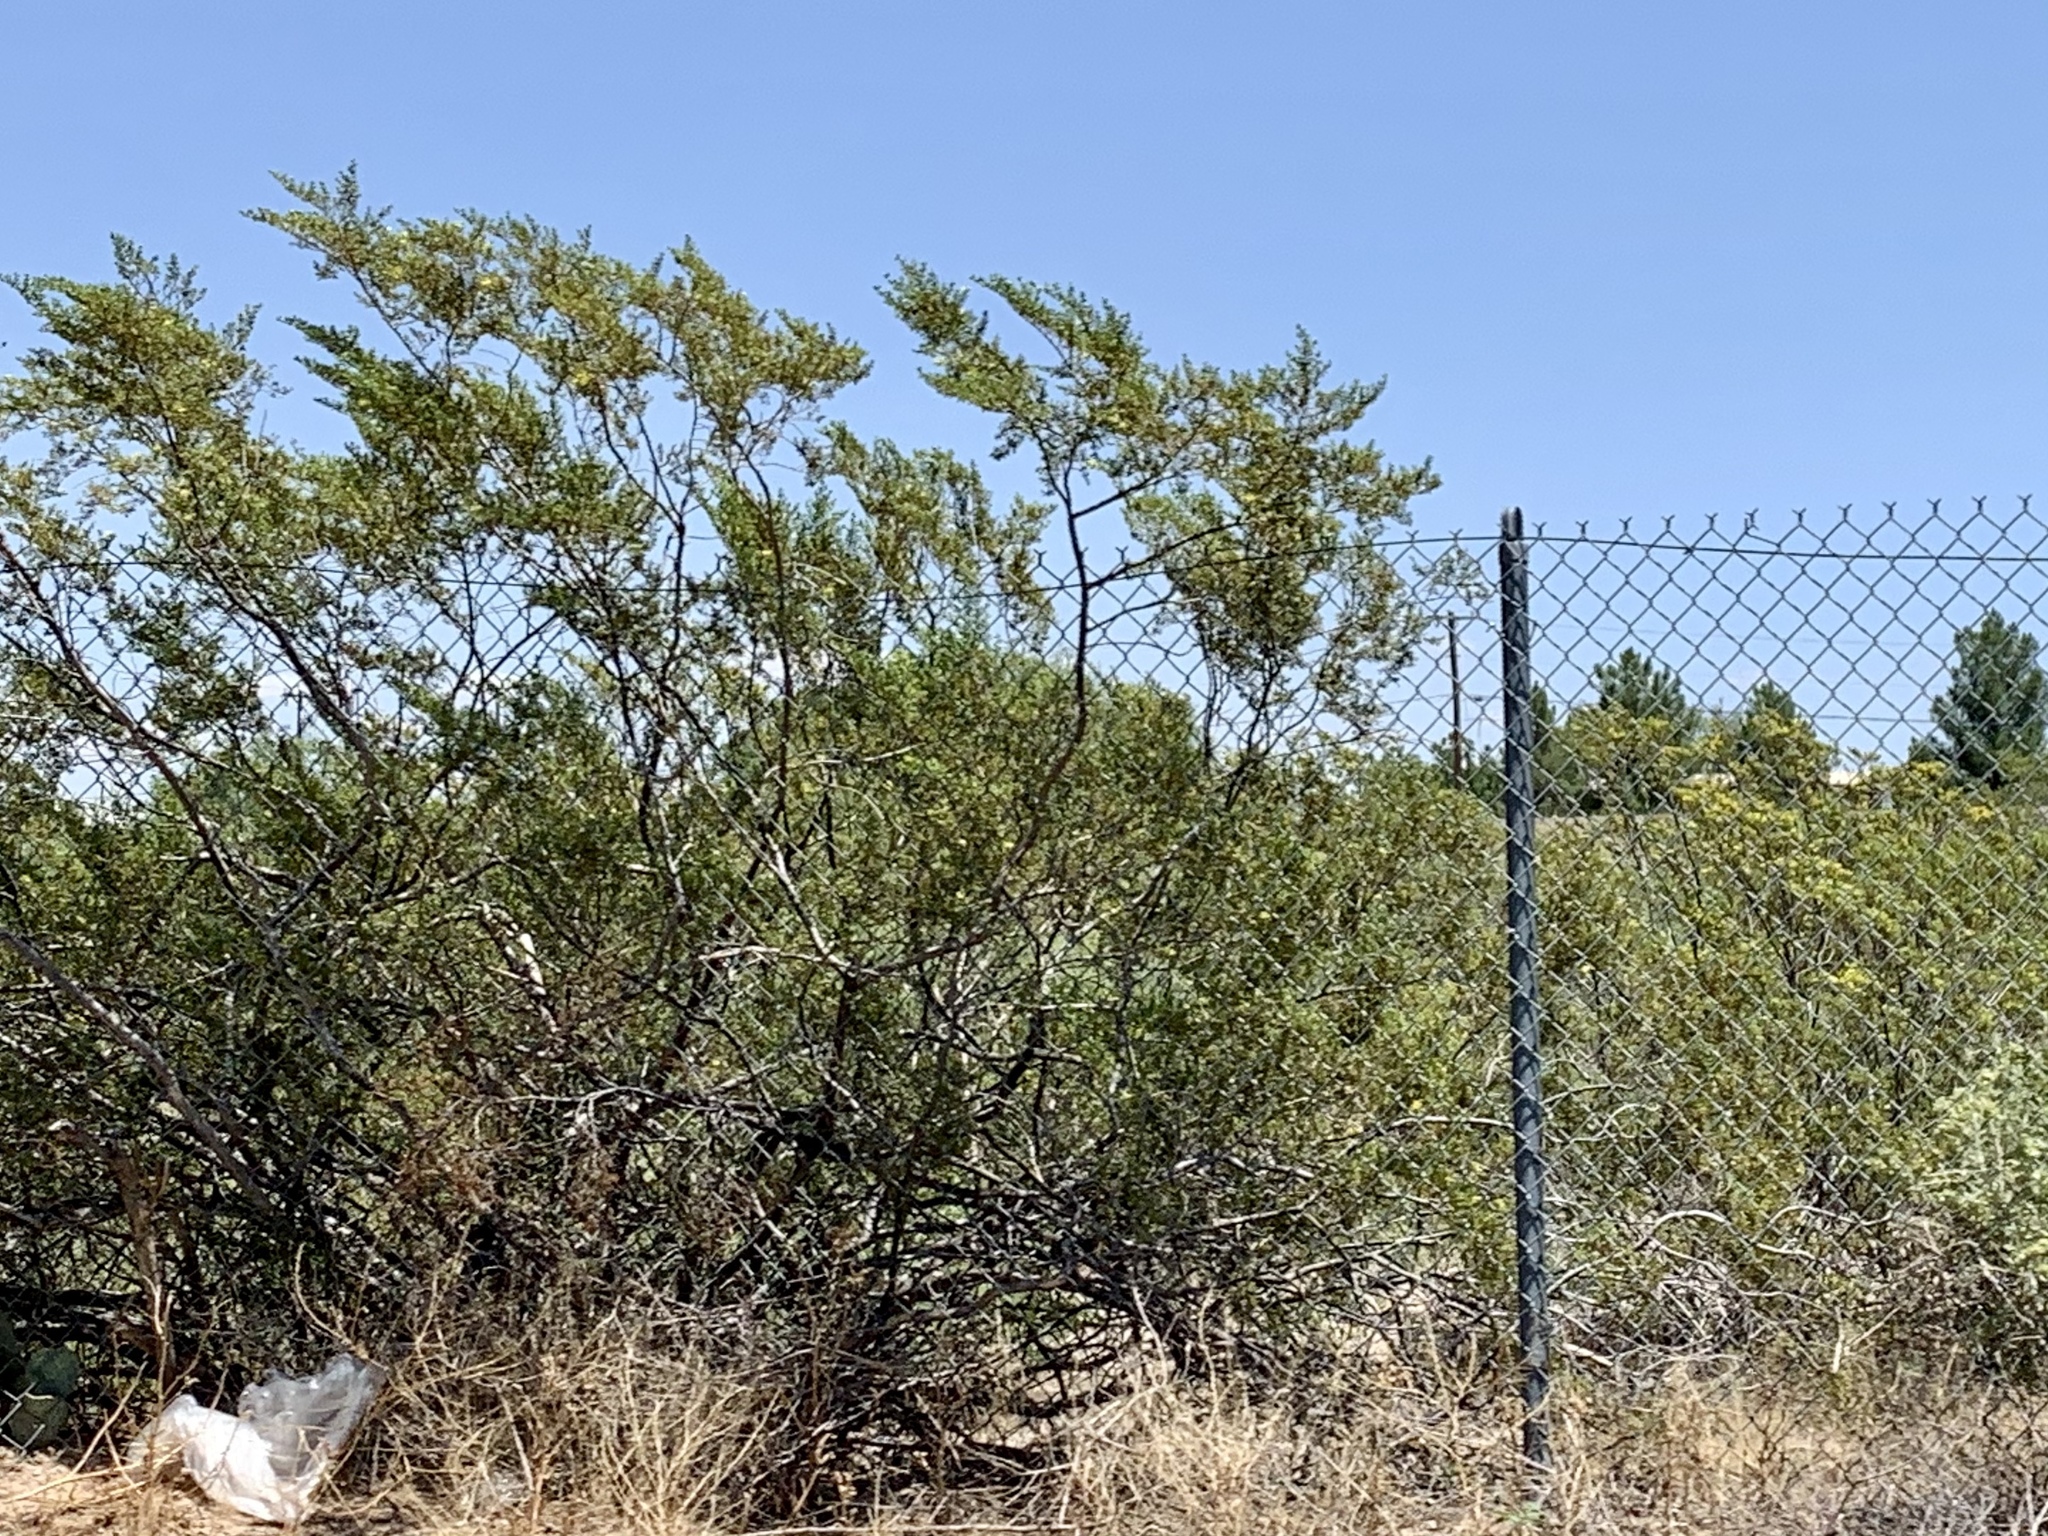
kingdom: Plantae
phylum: Tracheophyta
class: Magnoliopsida
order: Zygophyllales
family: Zygophyllaceae
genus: Larrea
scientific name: Larrea tridentata
